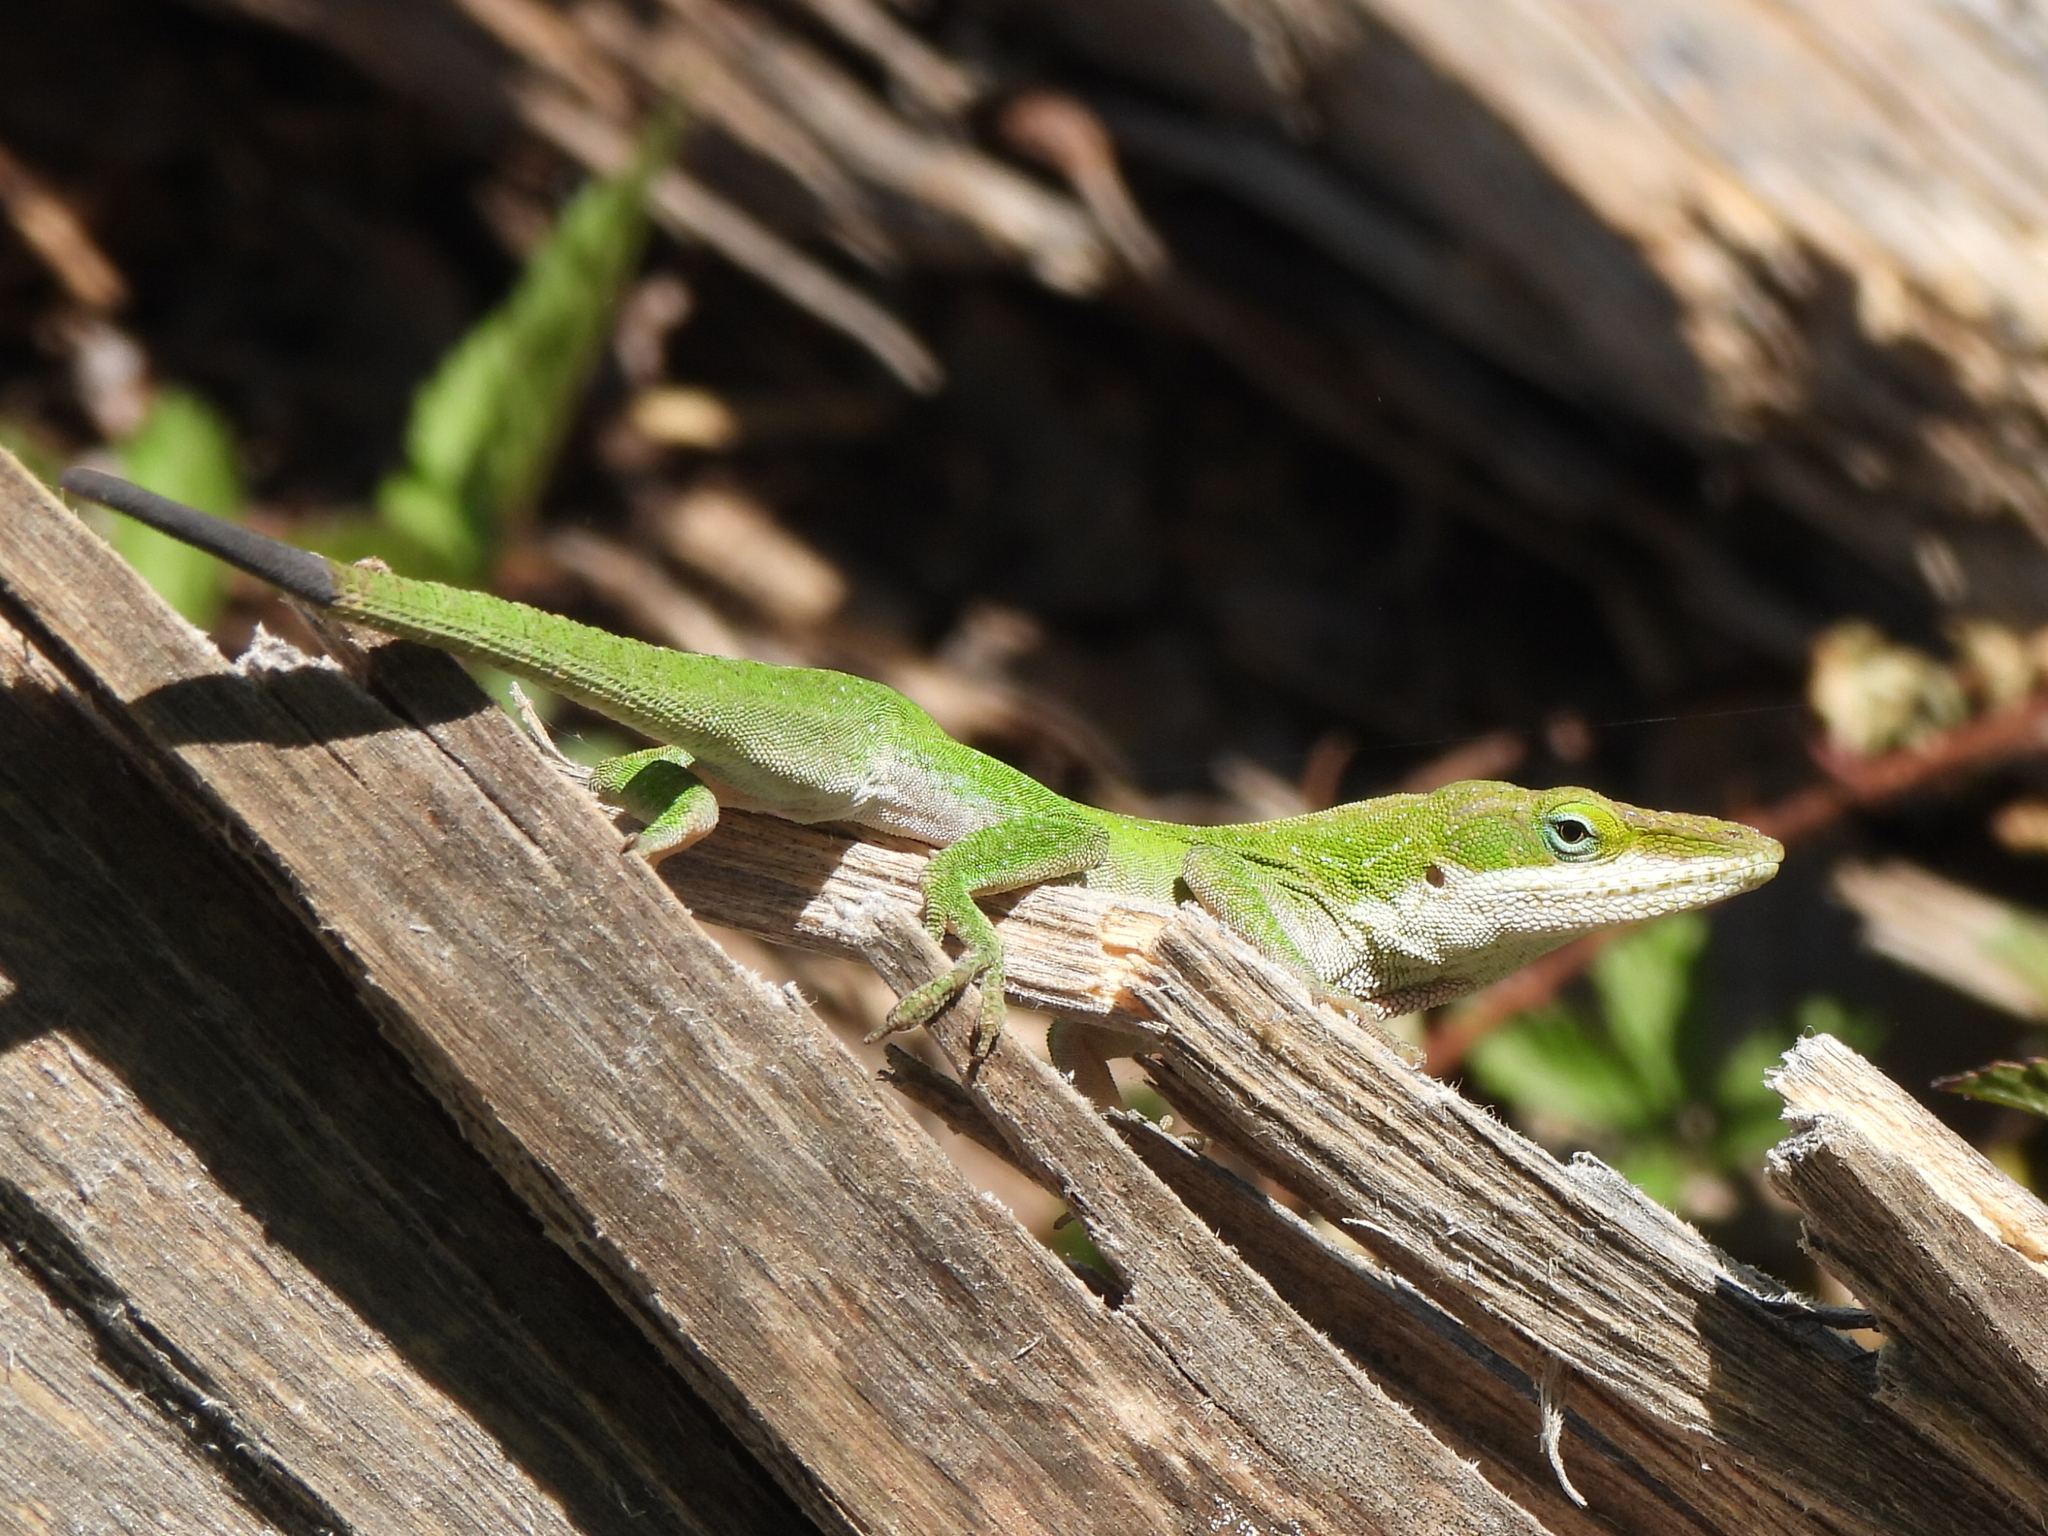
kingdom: Animalia
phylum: Chordata
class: Squamata
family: Dactyloidae
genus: Anolis
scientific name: Anolis carolinensis
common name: Green anole
